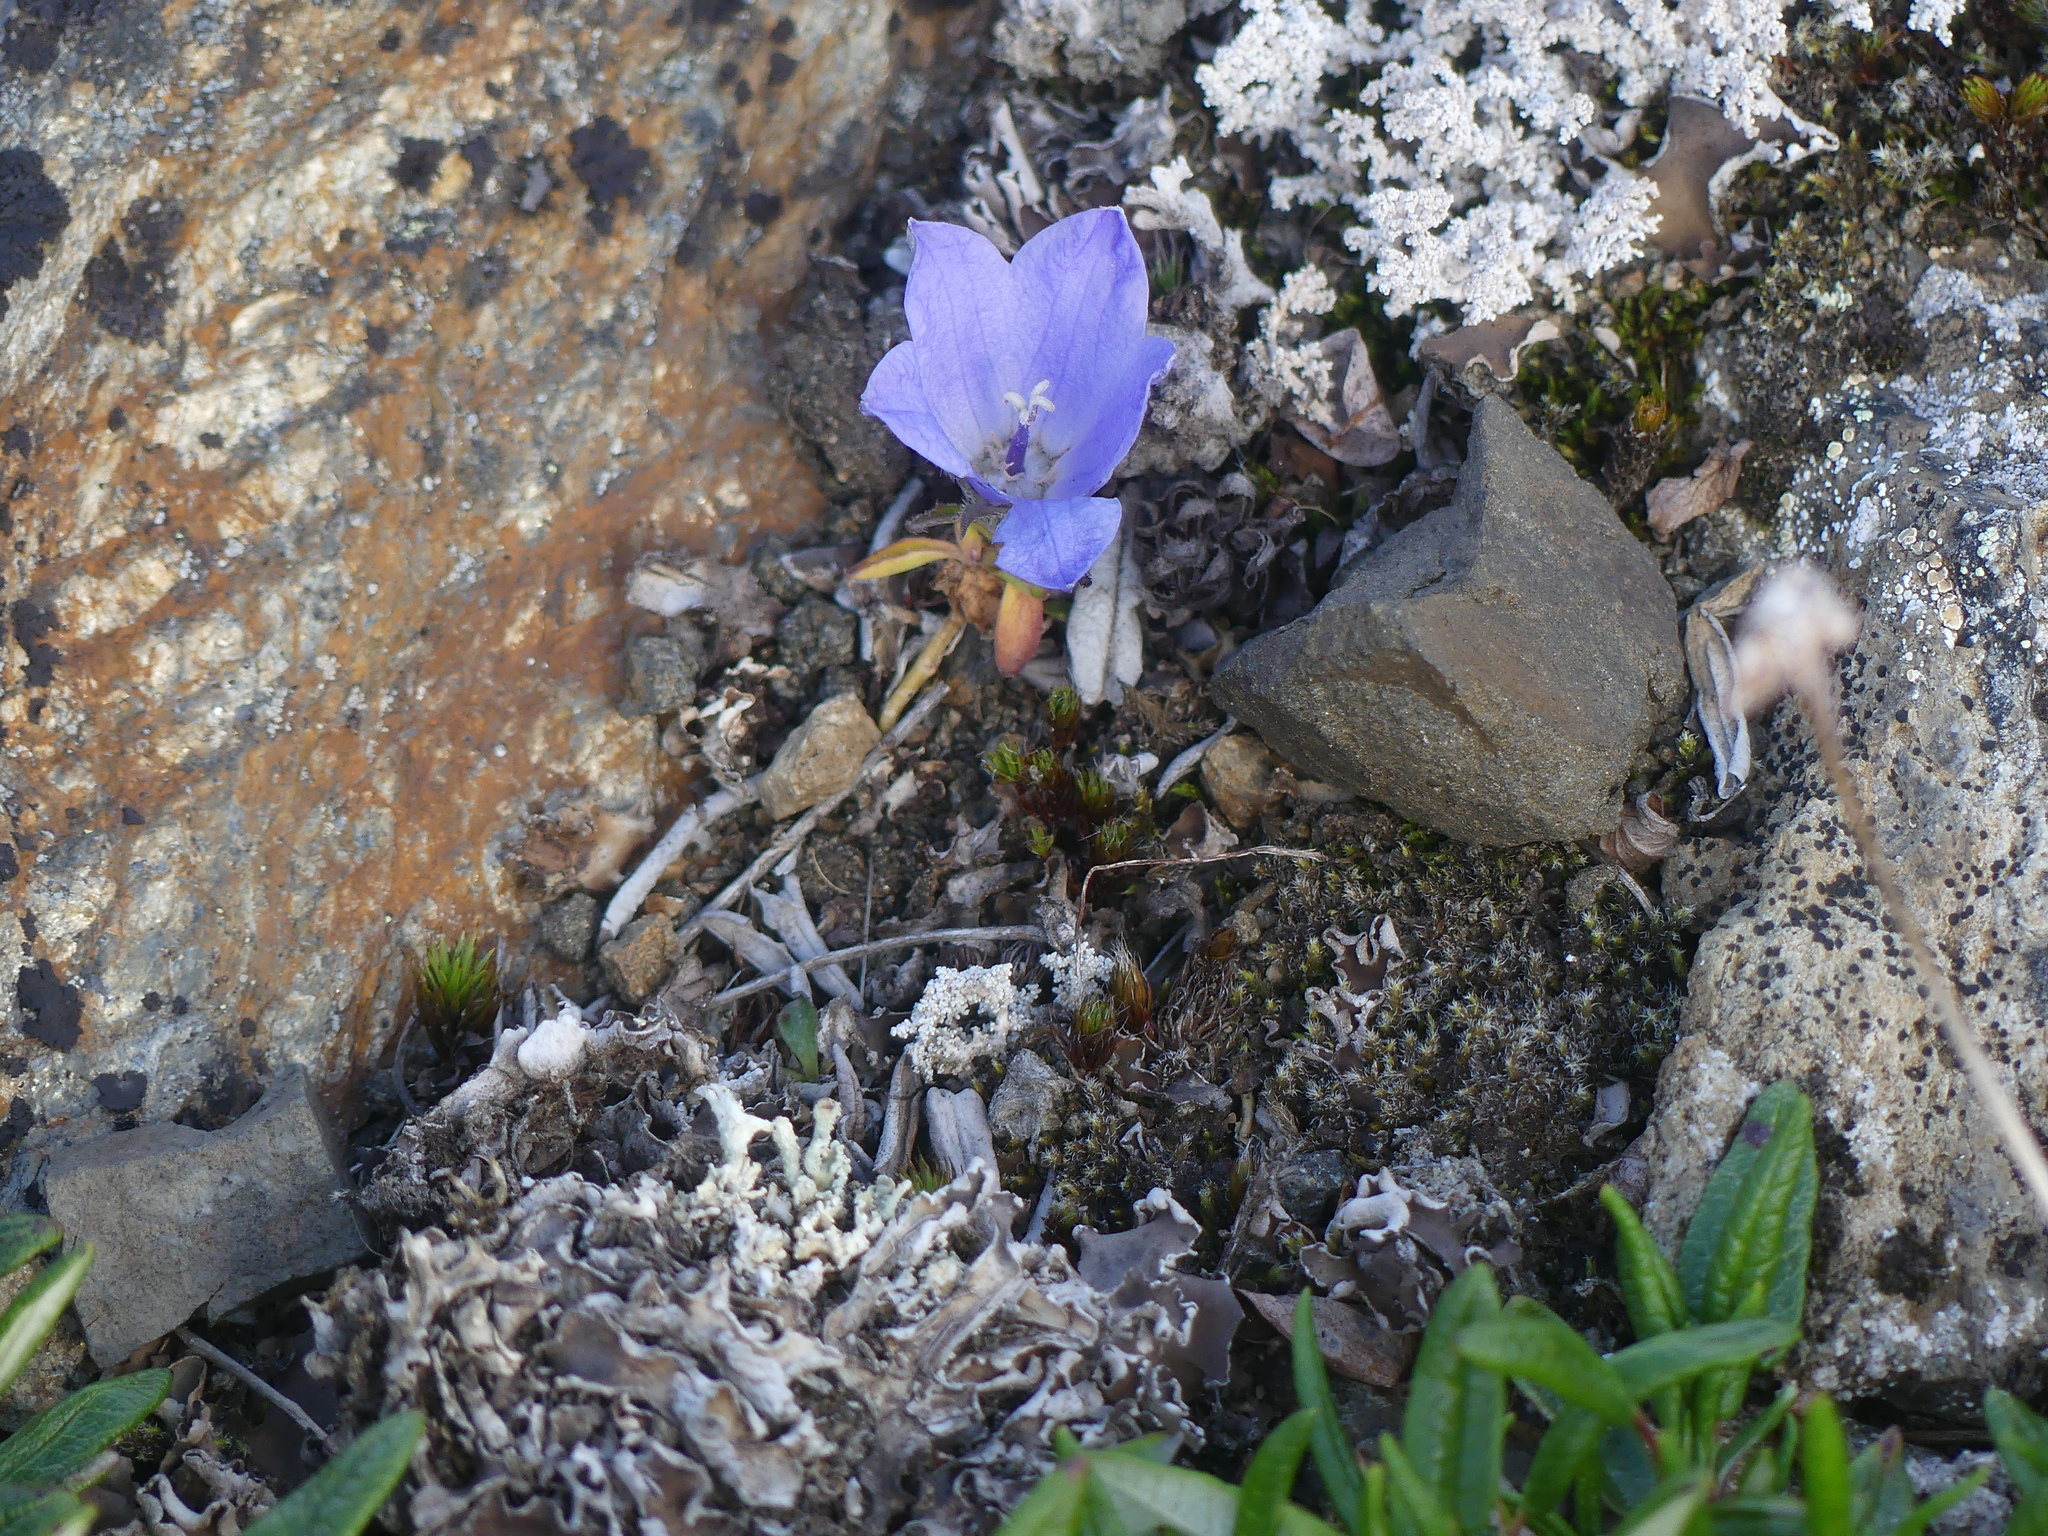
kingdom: Plantae
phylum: Tracheophyta
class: Magnoliopsida
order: Asterales
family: Campanulaceae
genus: Campanula
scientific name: Campanula lasiocarpa
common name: Mountain harebell
